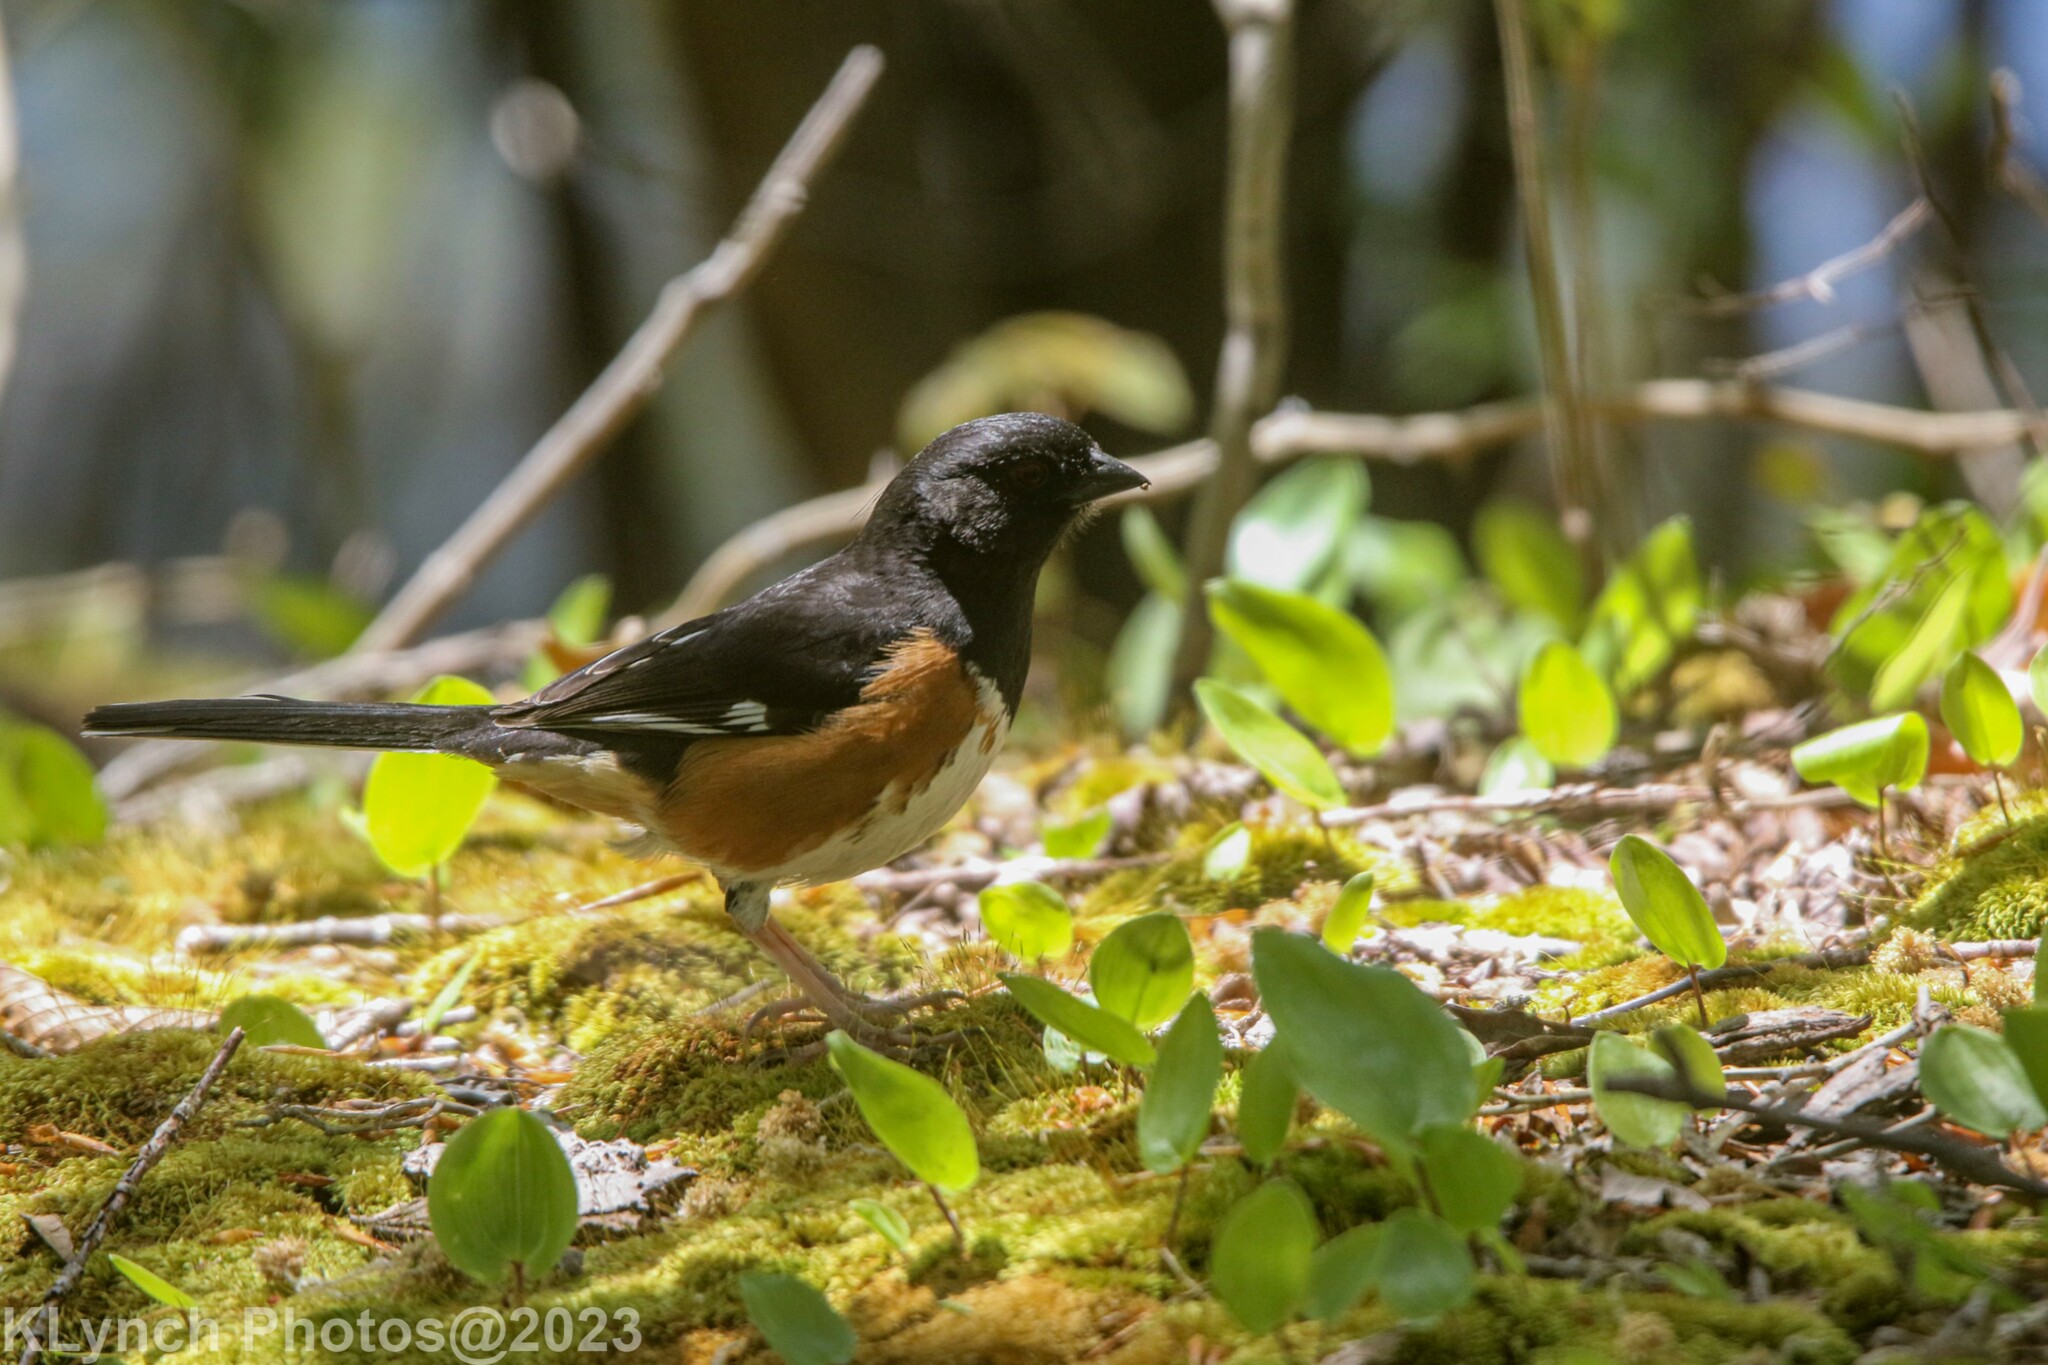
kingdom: Animalia
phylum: Chordata
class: Aves
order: Passeriformes
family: Passerellidae
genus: Pipilo
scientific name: Pipilo erythrophthalmus
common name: Eastern towhee
